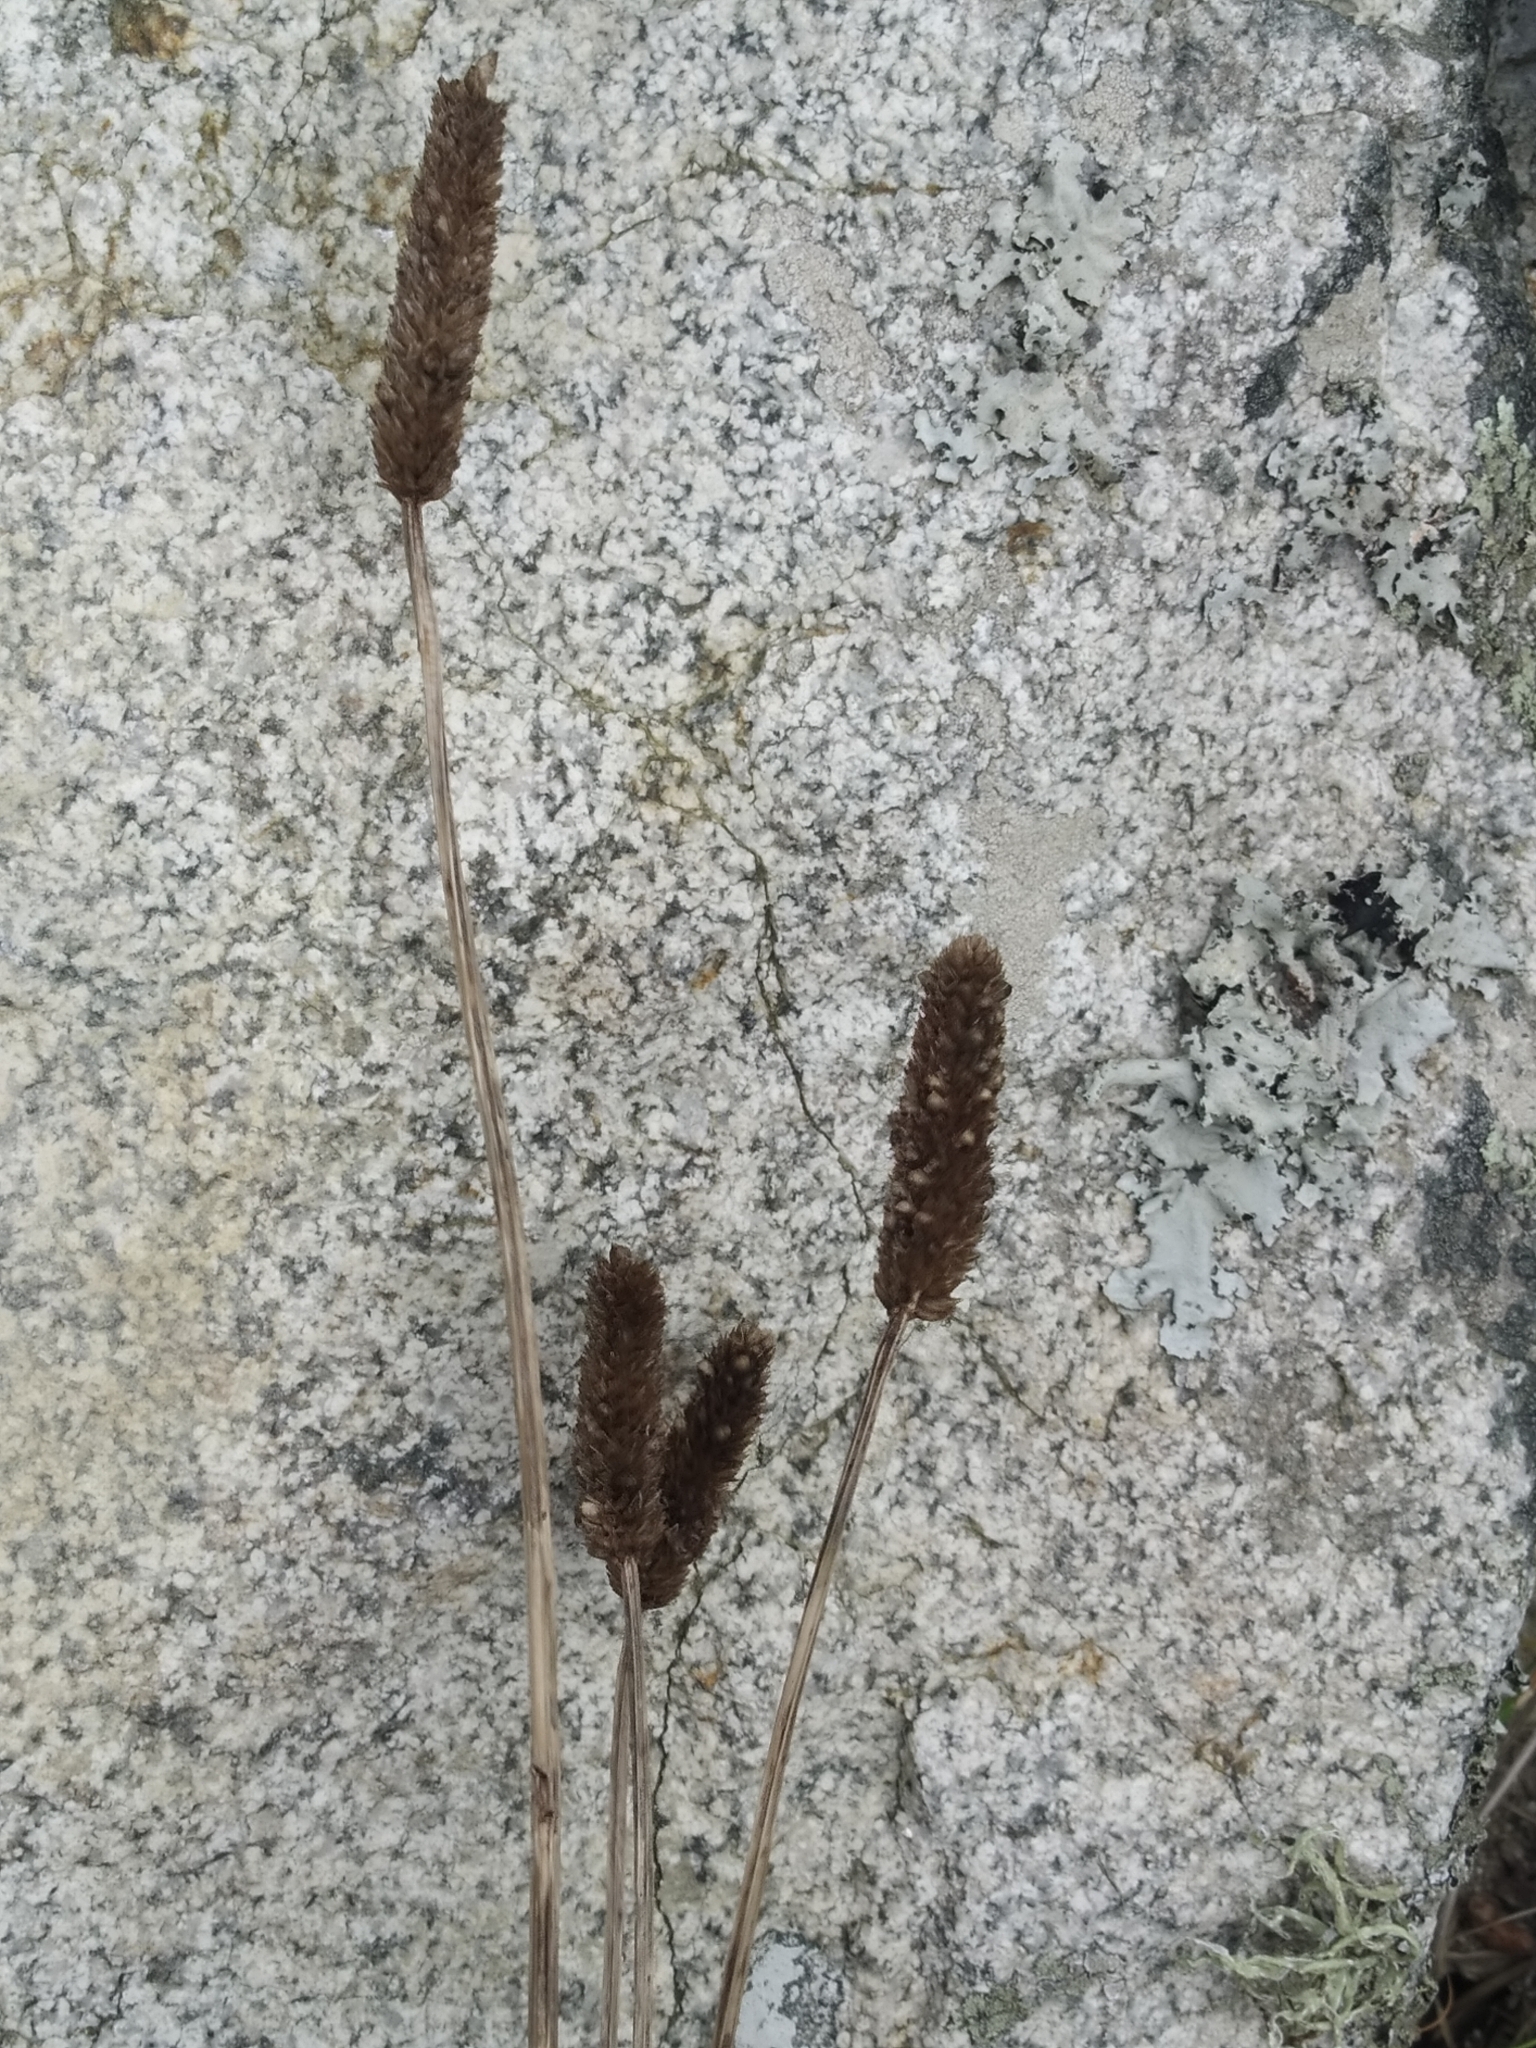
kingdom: Plantae
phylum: Tracheophyta
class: Magnoliopsida
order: Lamiales
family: Plantaginaceae
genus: Plantago
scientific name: Plantago lanceolata
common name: Ribwort plantain
